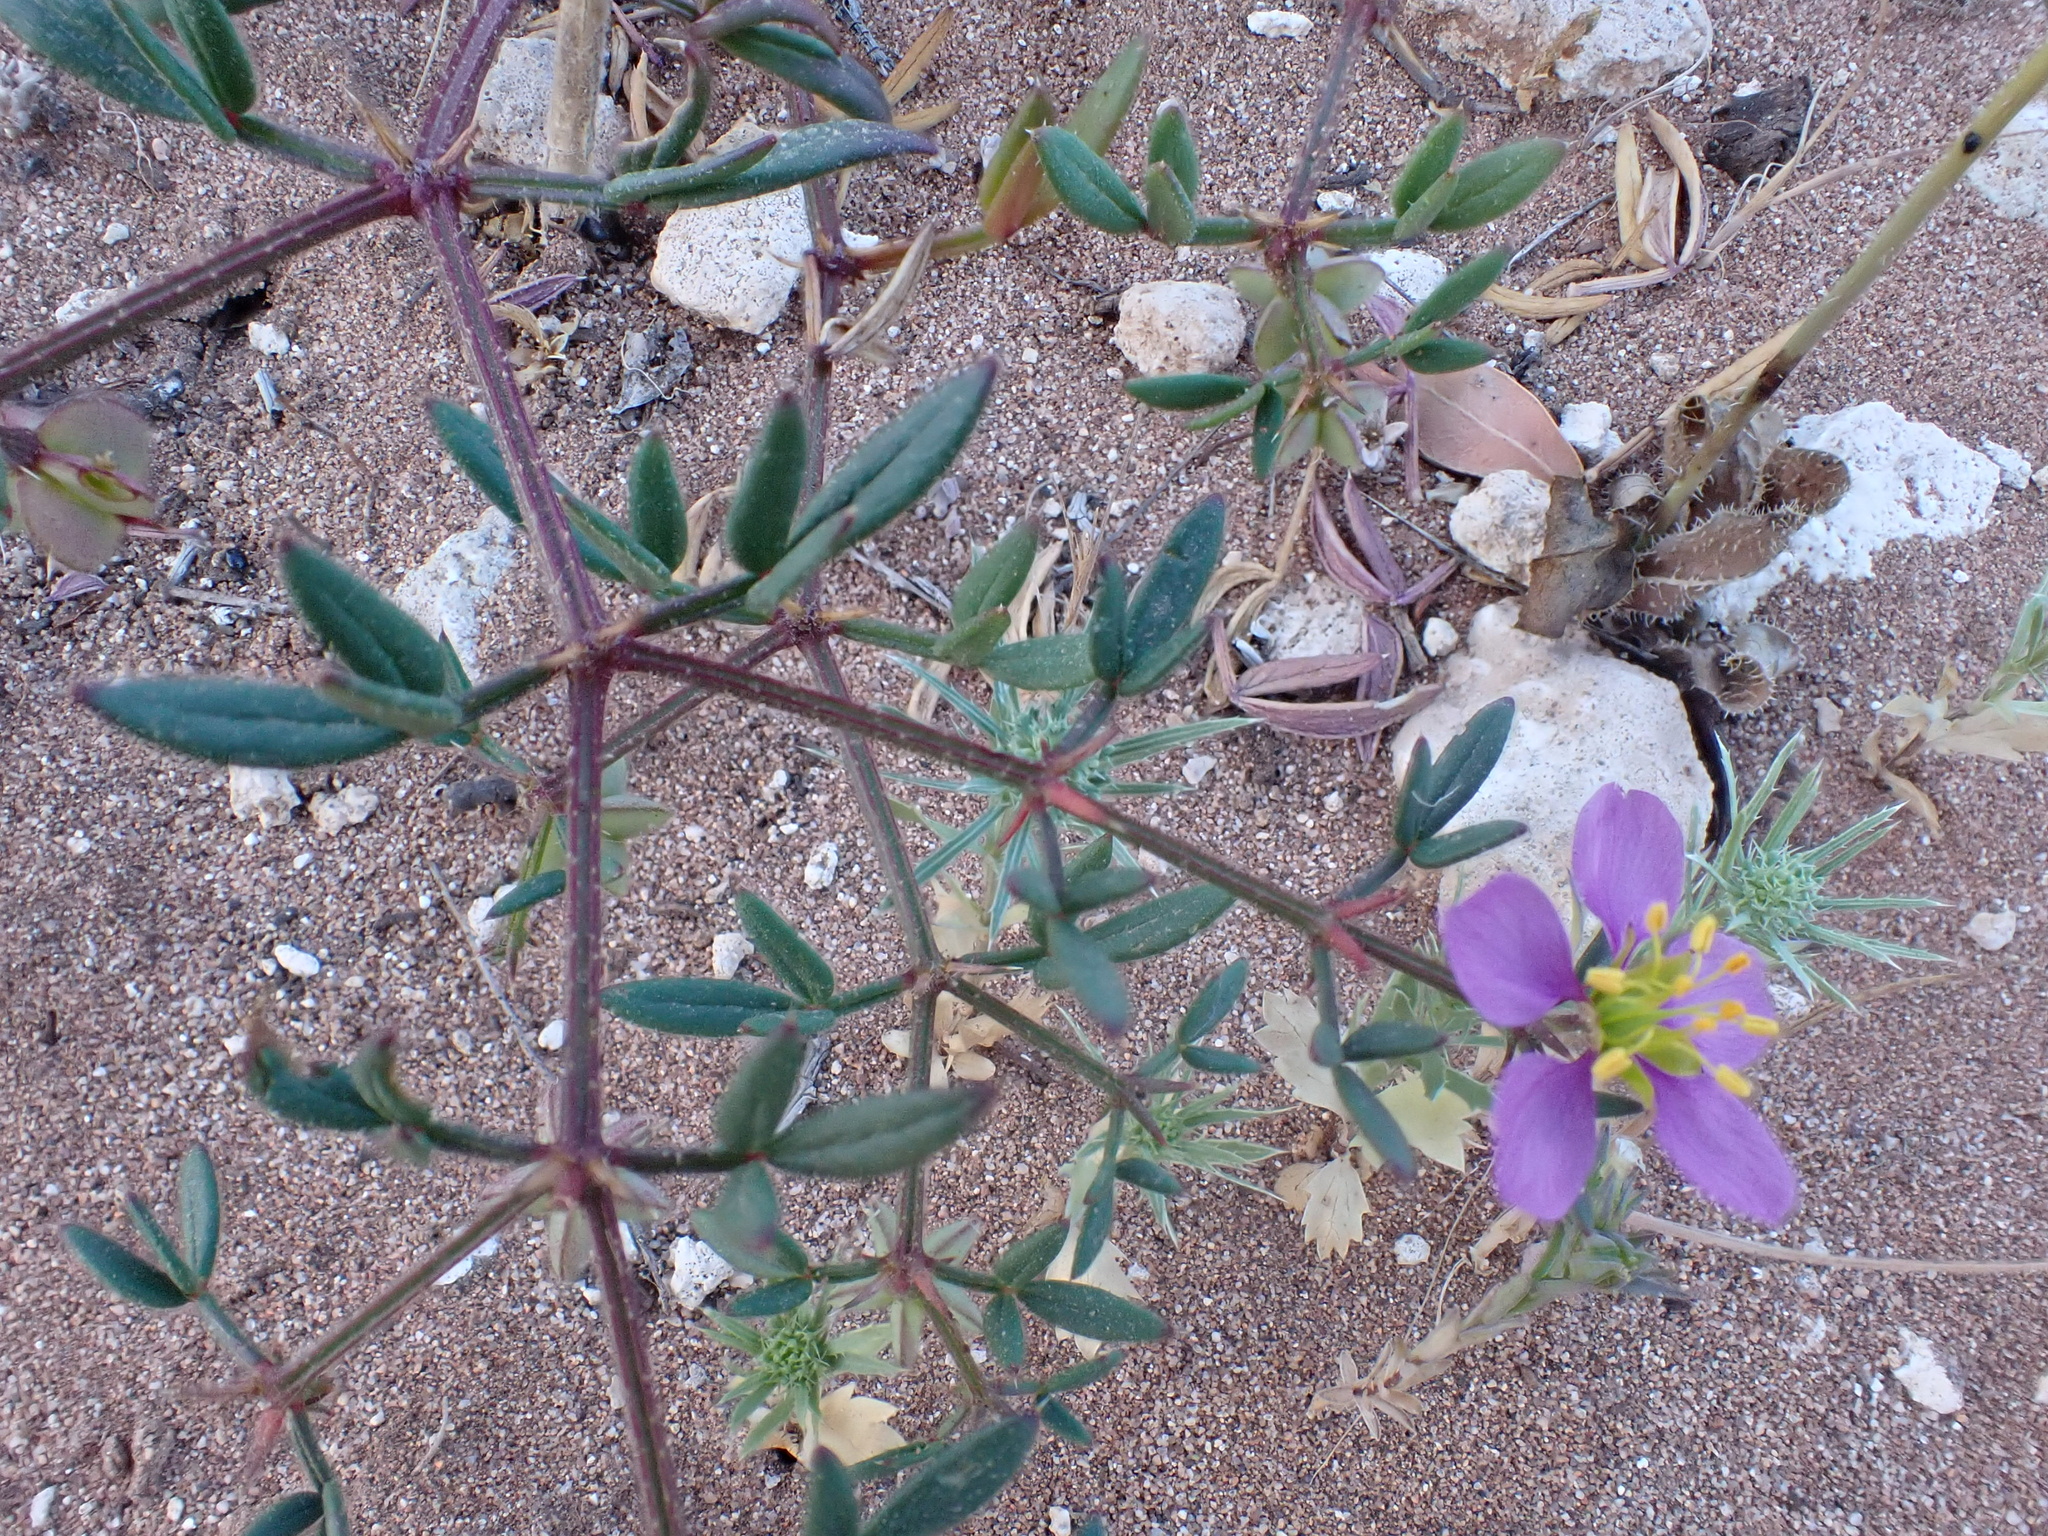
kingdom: Plantae
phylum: Tracheophyta
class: Magnoliopsida
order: Zygophyllales
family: Zygophyllaceae
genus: Fagonia
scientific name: Fagonia cretica
